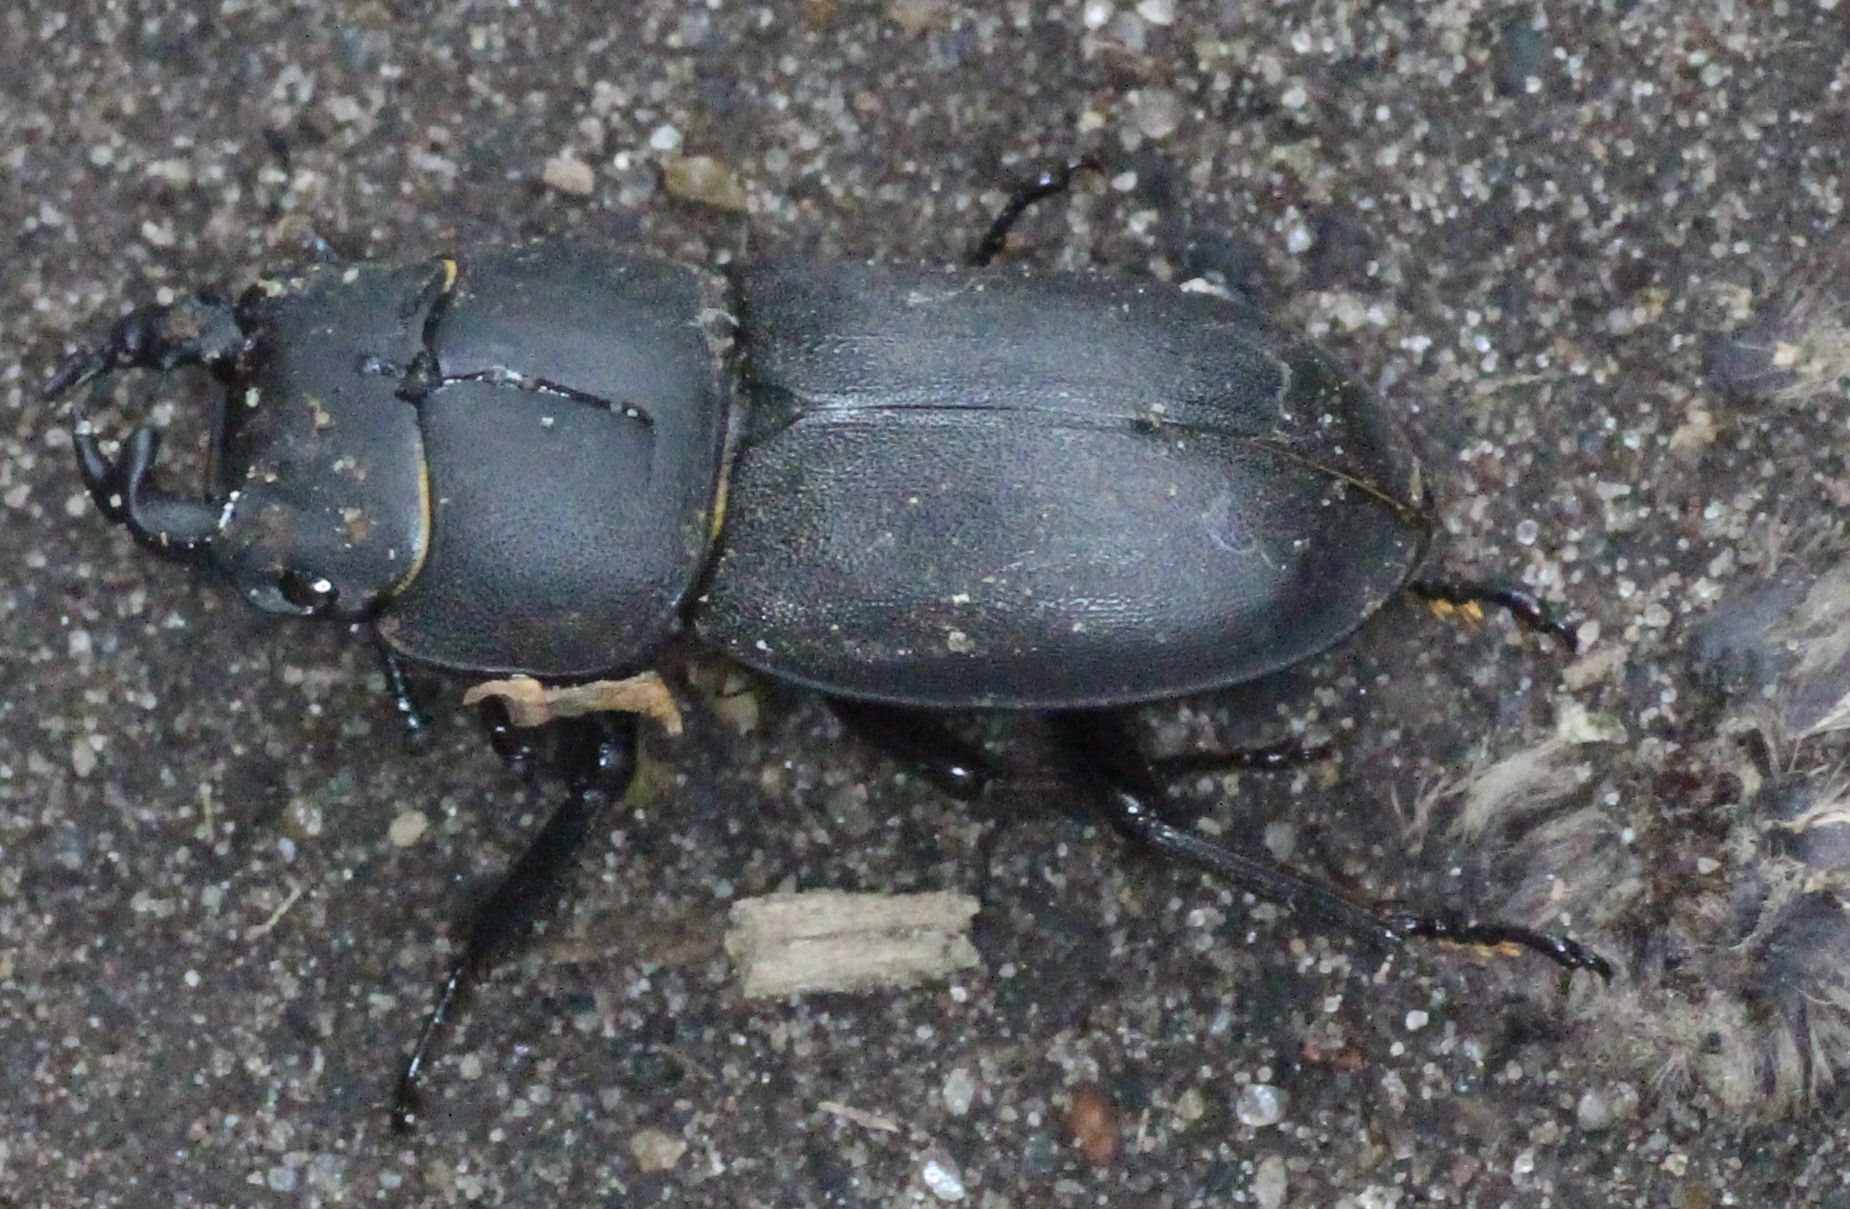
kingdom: Animalia
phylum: Arthropoda
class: Insecta
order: Coleoptera
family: Lucanidae
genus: Dorcus
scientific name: Dorcus parallelipipedus
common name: Lesser stag beetle
